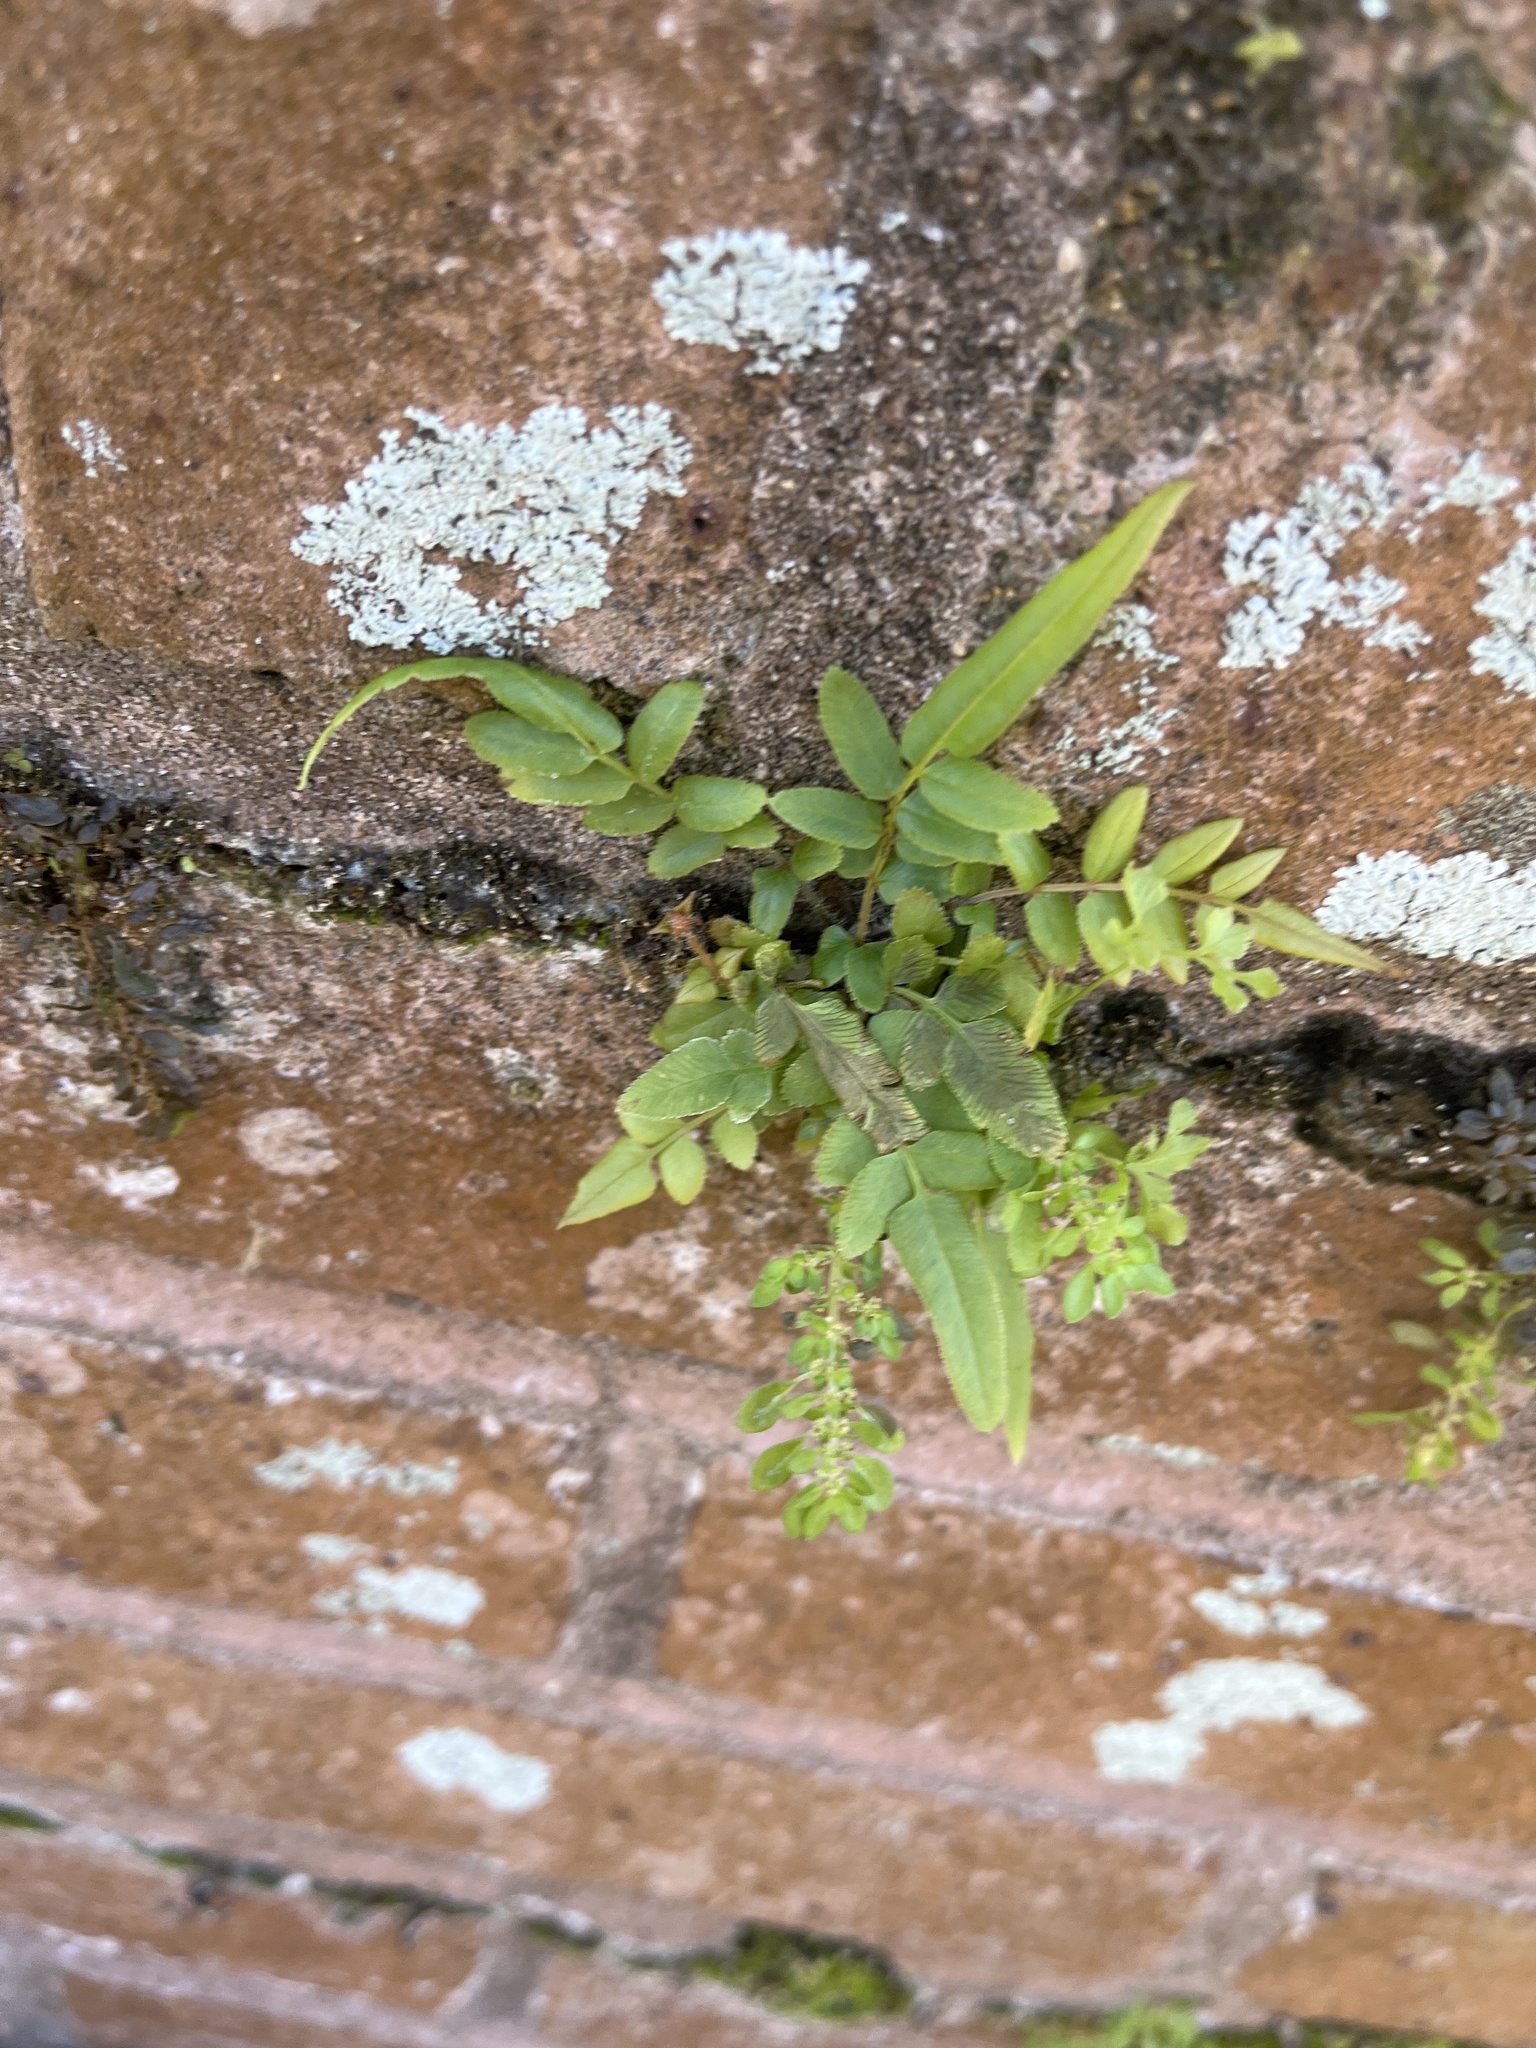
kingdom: Plantae
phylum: Tracheophyta
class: Polypodiopsida
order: Polypodiales
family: Pteridaceae
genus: Pteris
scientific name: Pteris vittata
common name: Ladder brake
